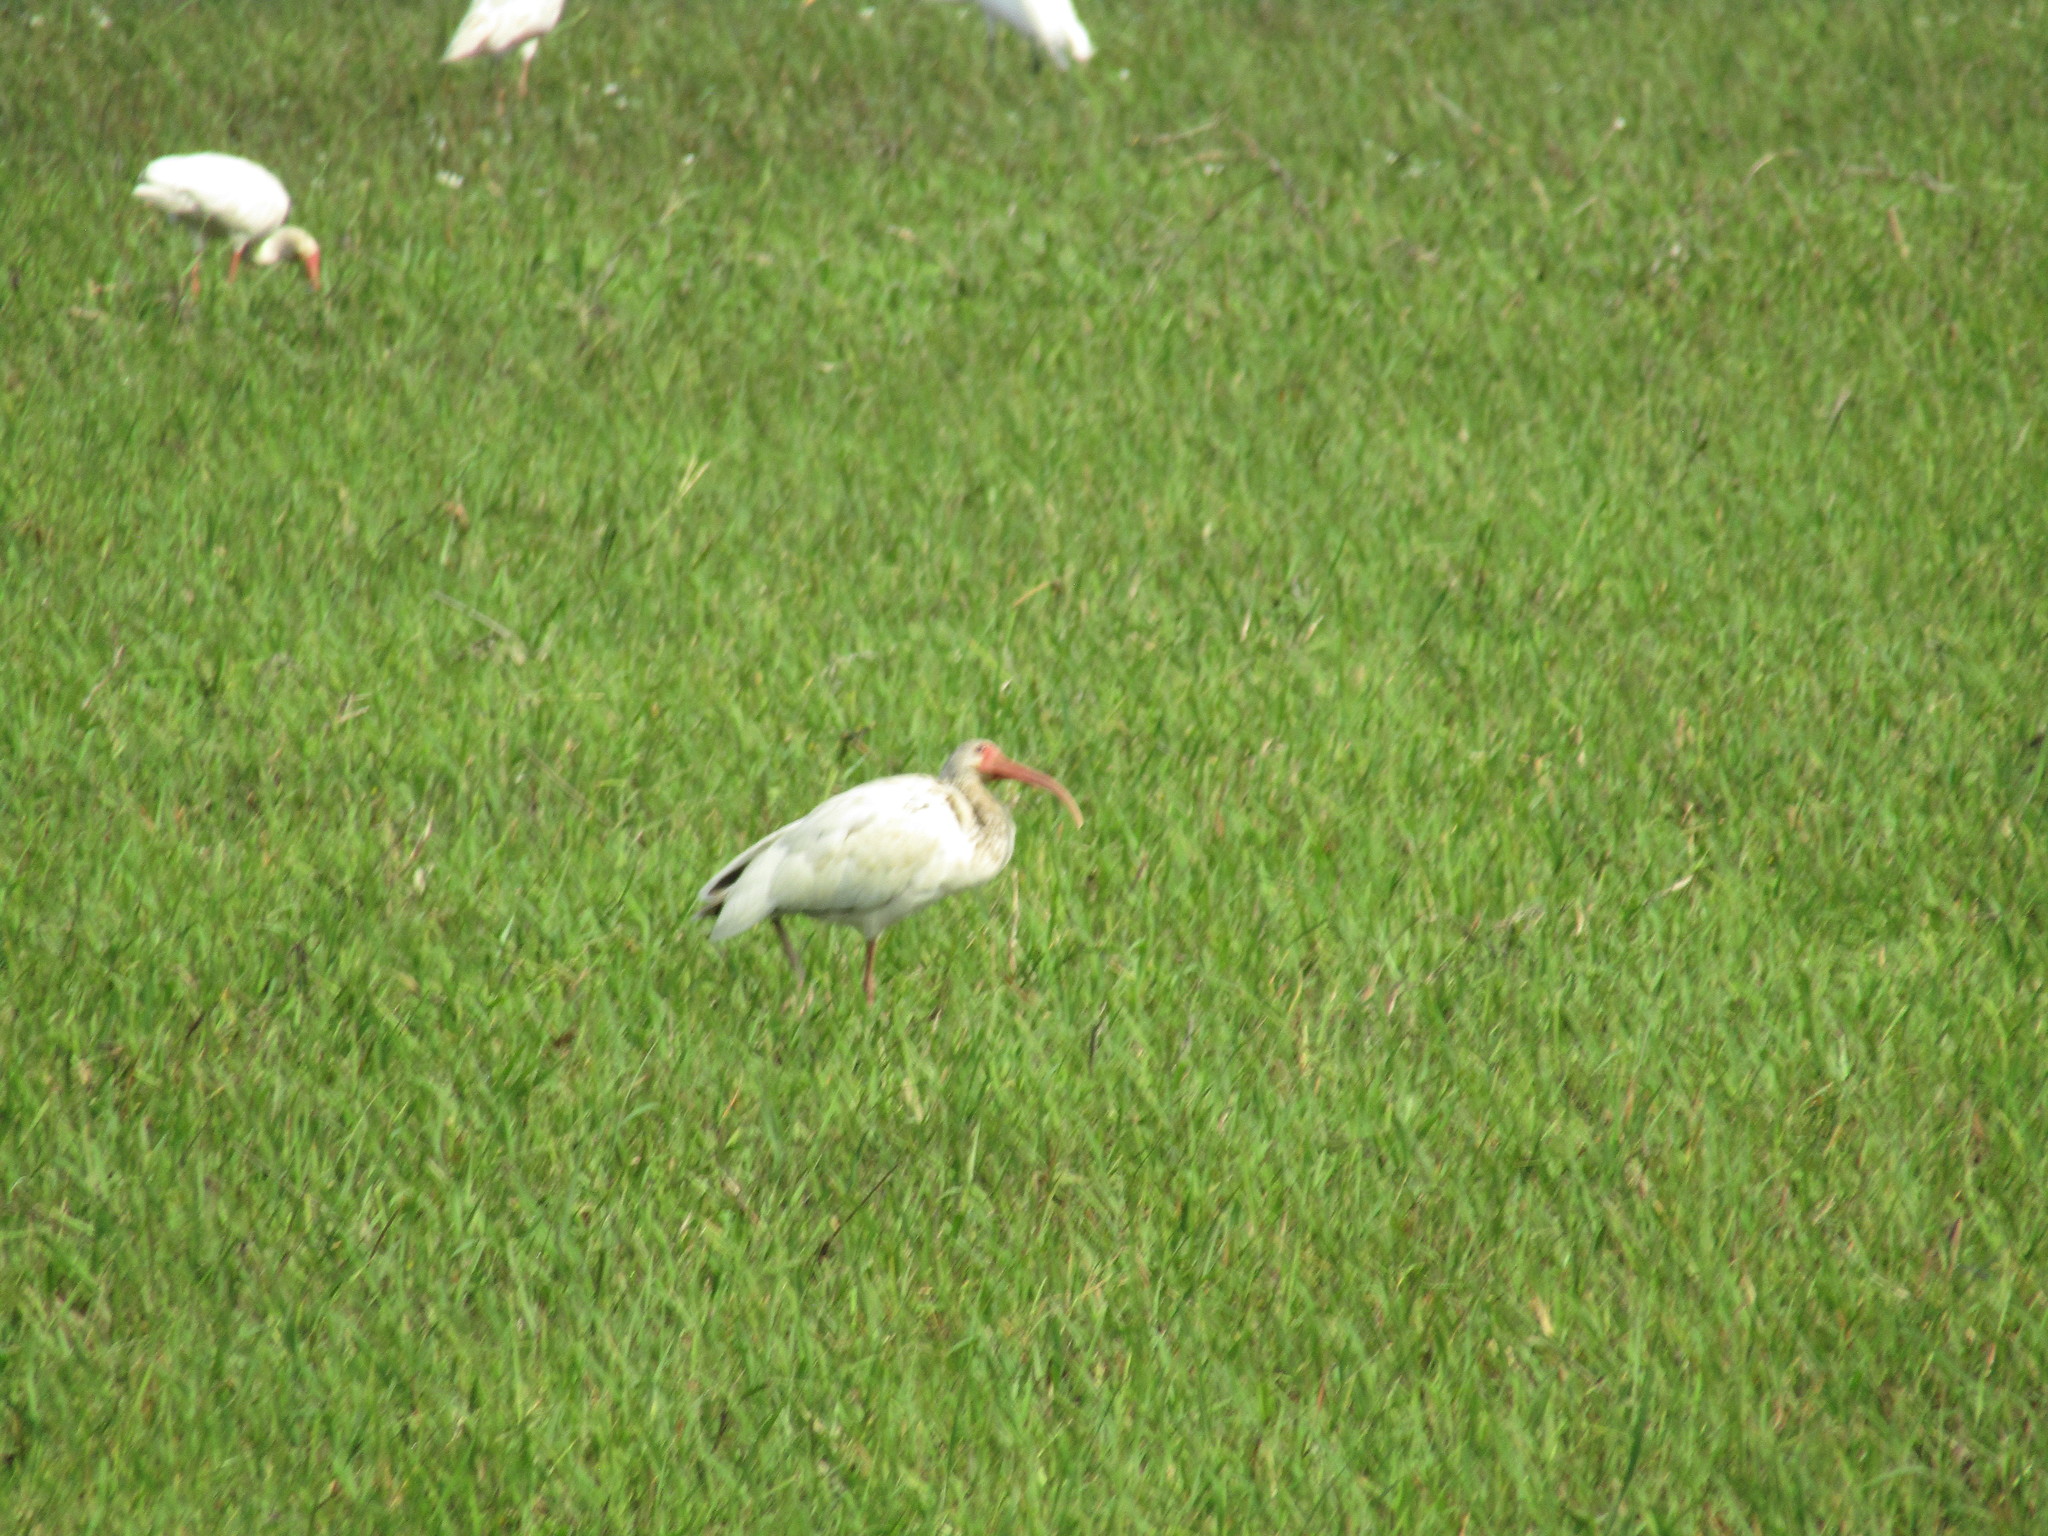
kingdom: Animalia
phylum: Chordata
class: Aves
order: Pelecaniformes
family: Threskiornithidae
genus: Eudocimus
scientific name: Eudocimus albus
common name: White ibis
